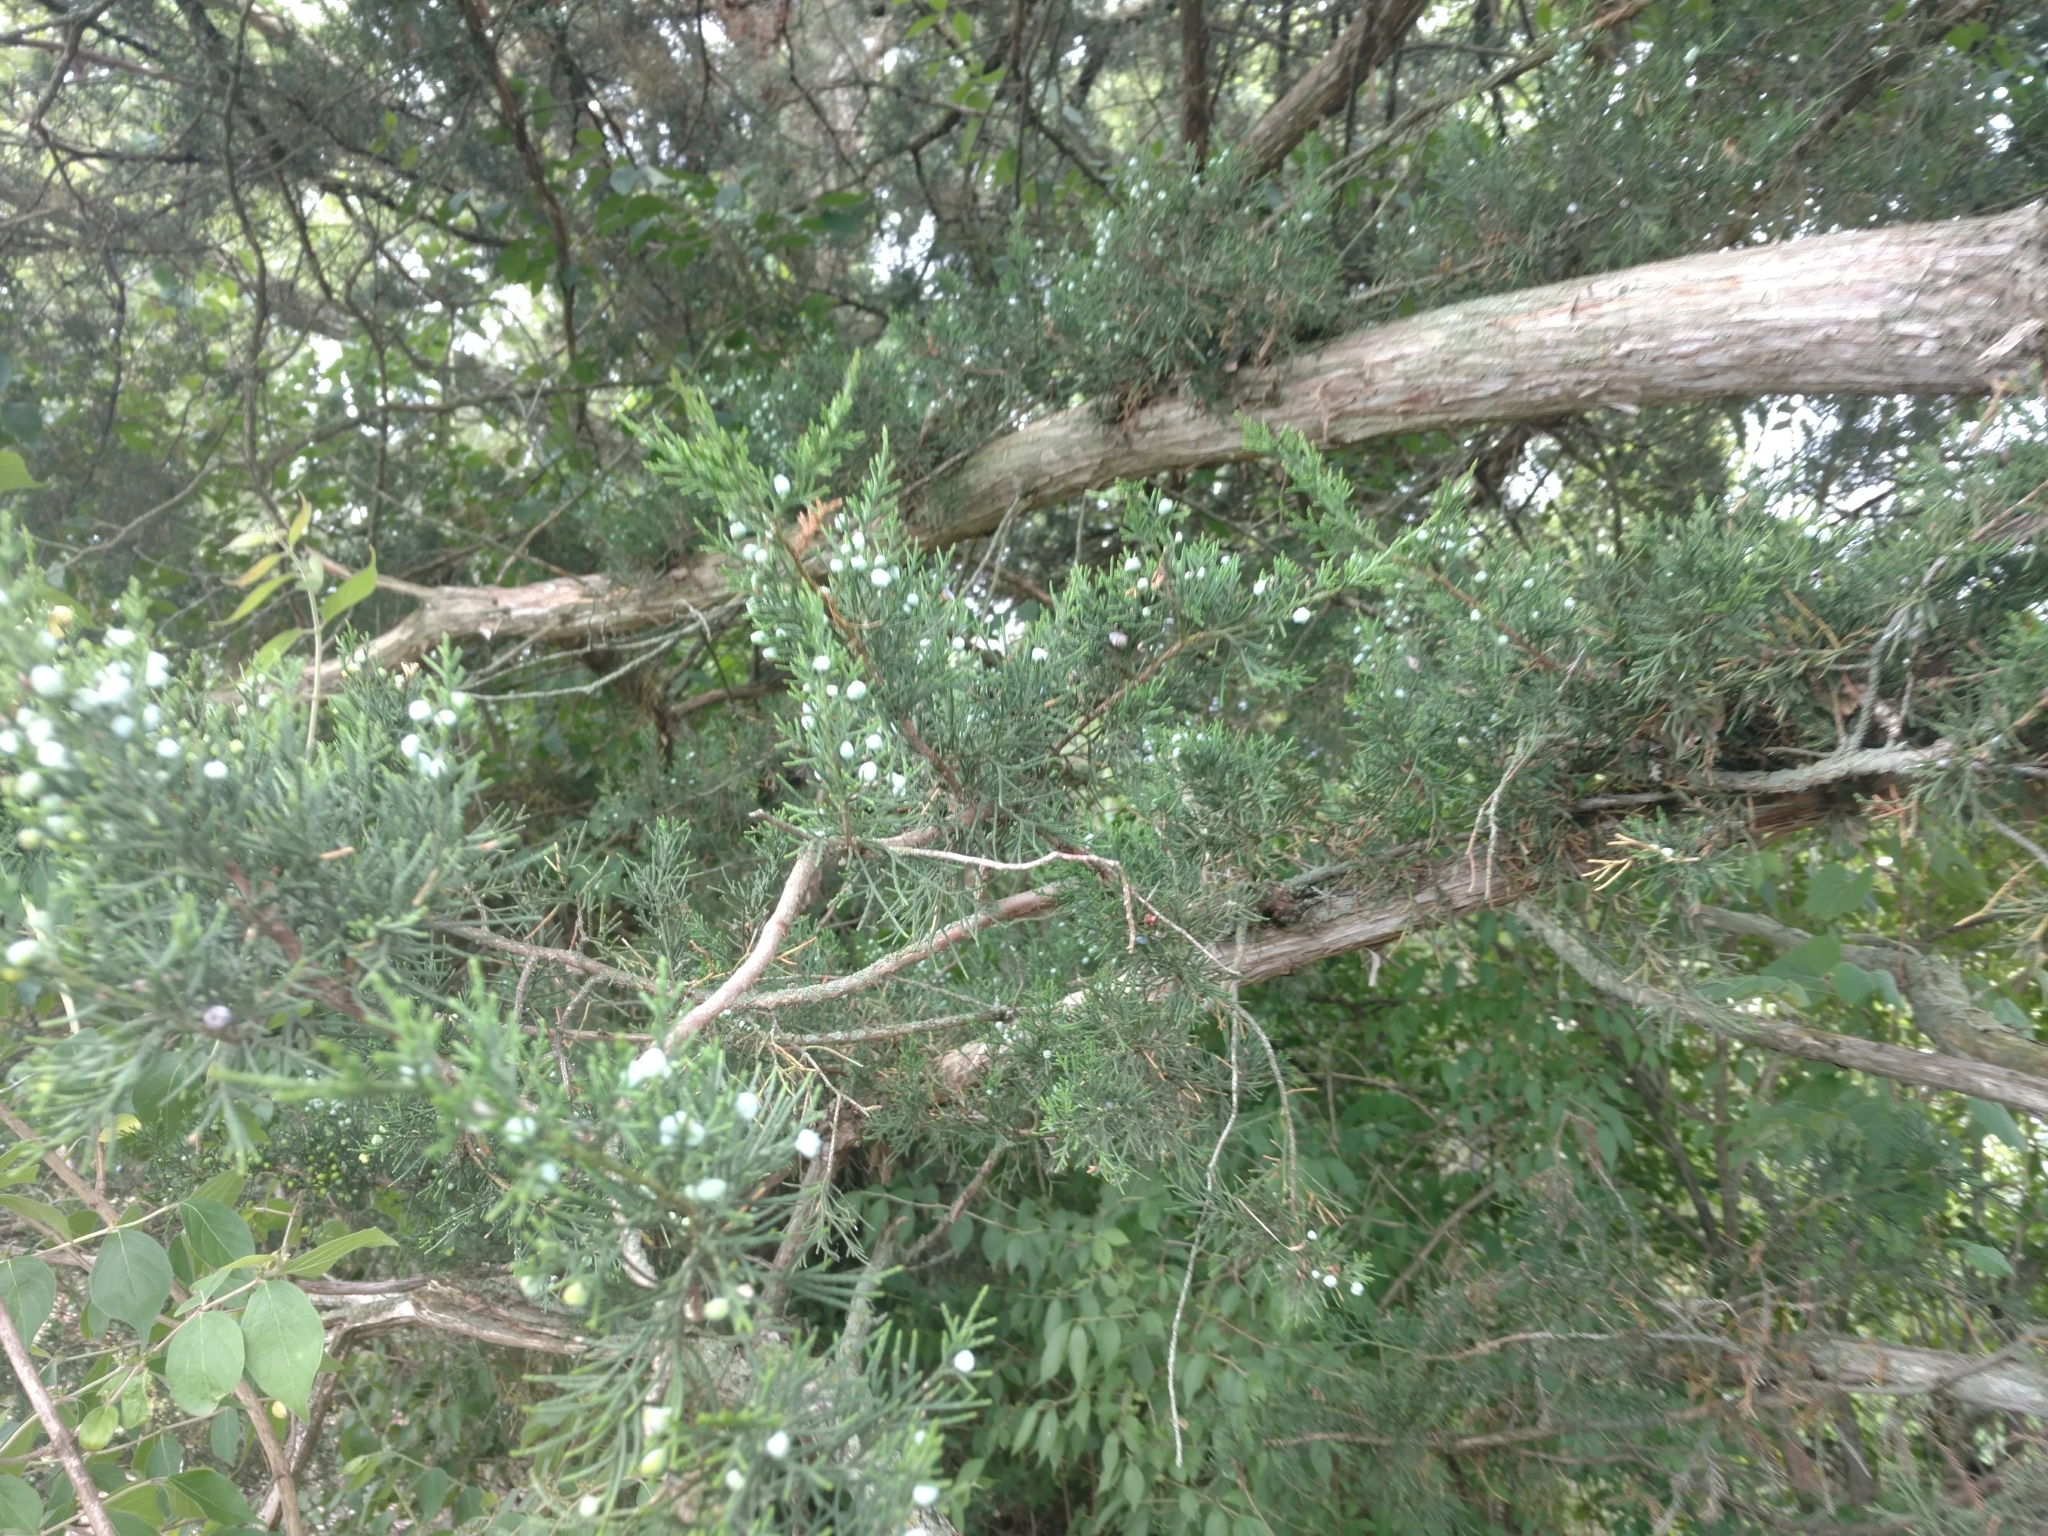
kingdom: Plantae
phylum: Tracheophyta
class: Pinopsida
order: Pinales
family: Cupressaceae
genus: Juniperus
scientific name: Juniperus virginiana
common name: Red juniper
